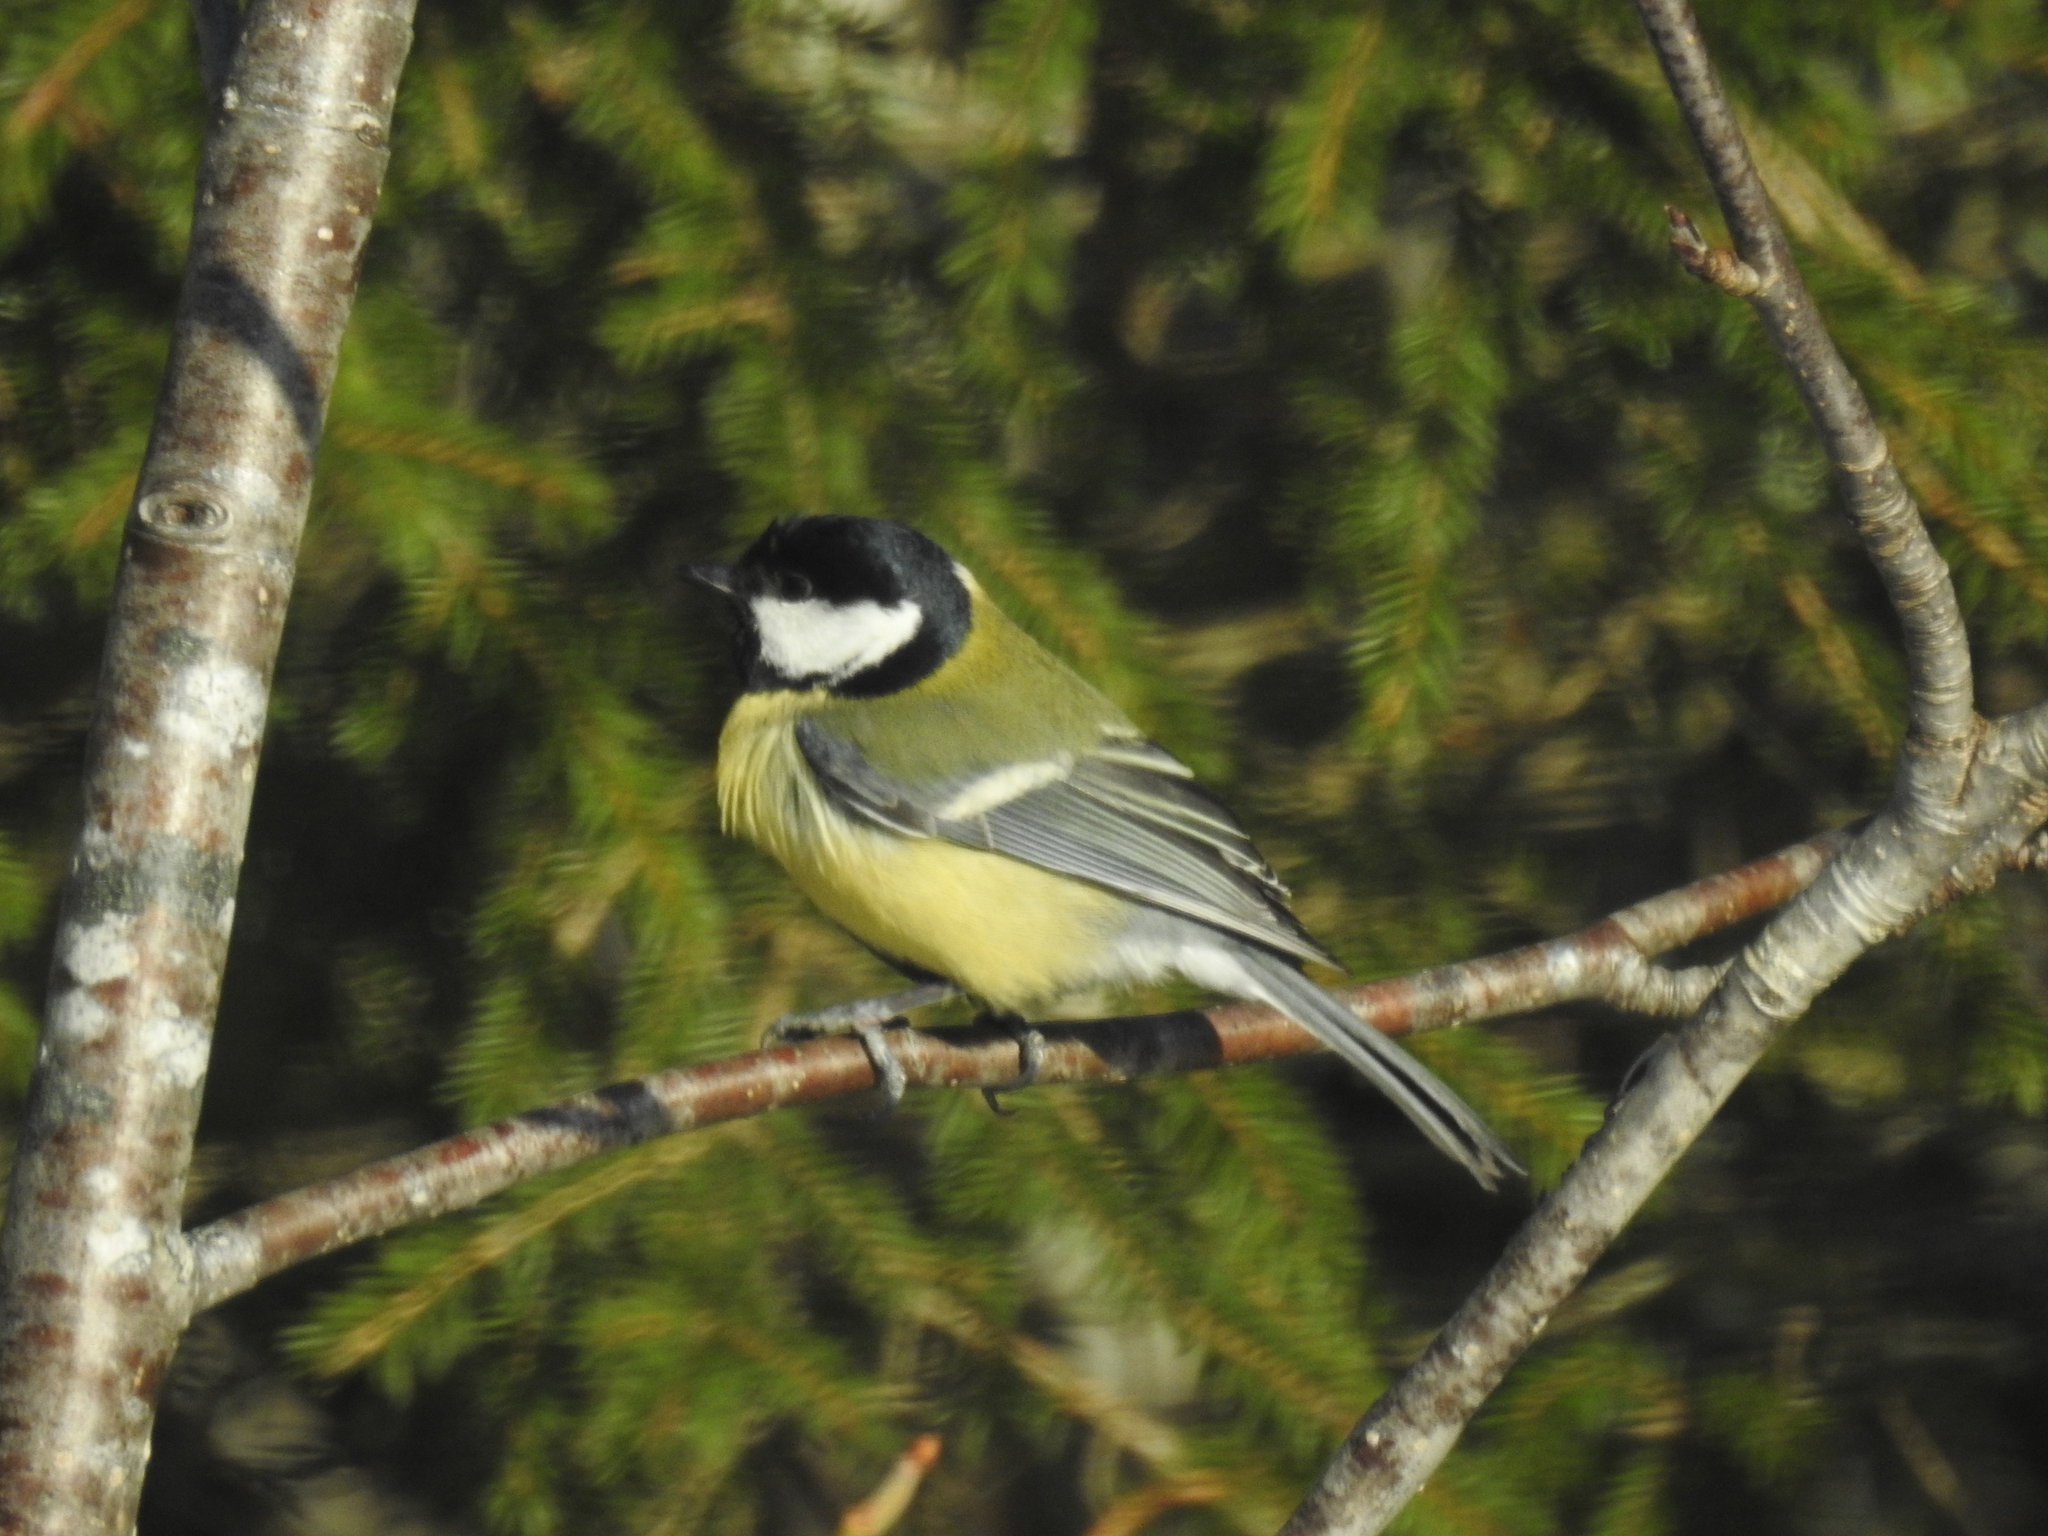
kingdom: Animalia
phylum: Chordata
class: Aves
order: Passeriformes
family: Paridae
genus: Parus
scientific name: Parus major
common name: Great tit
